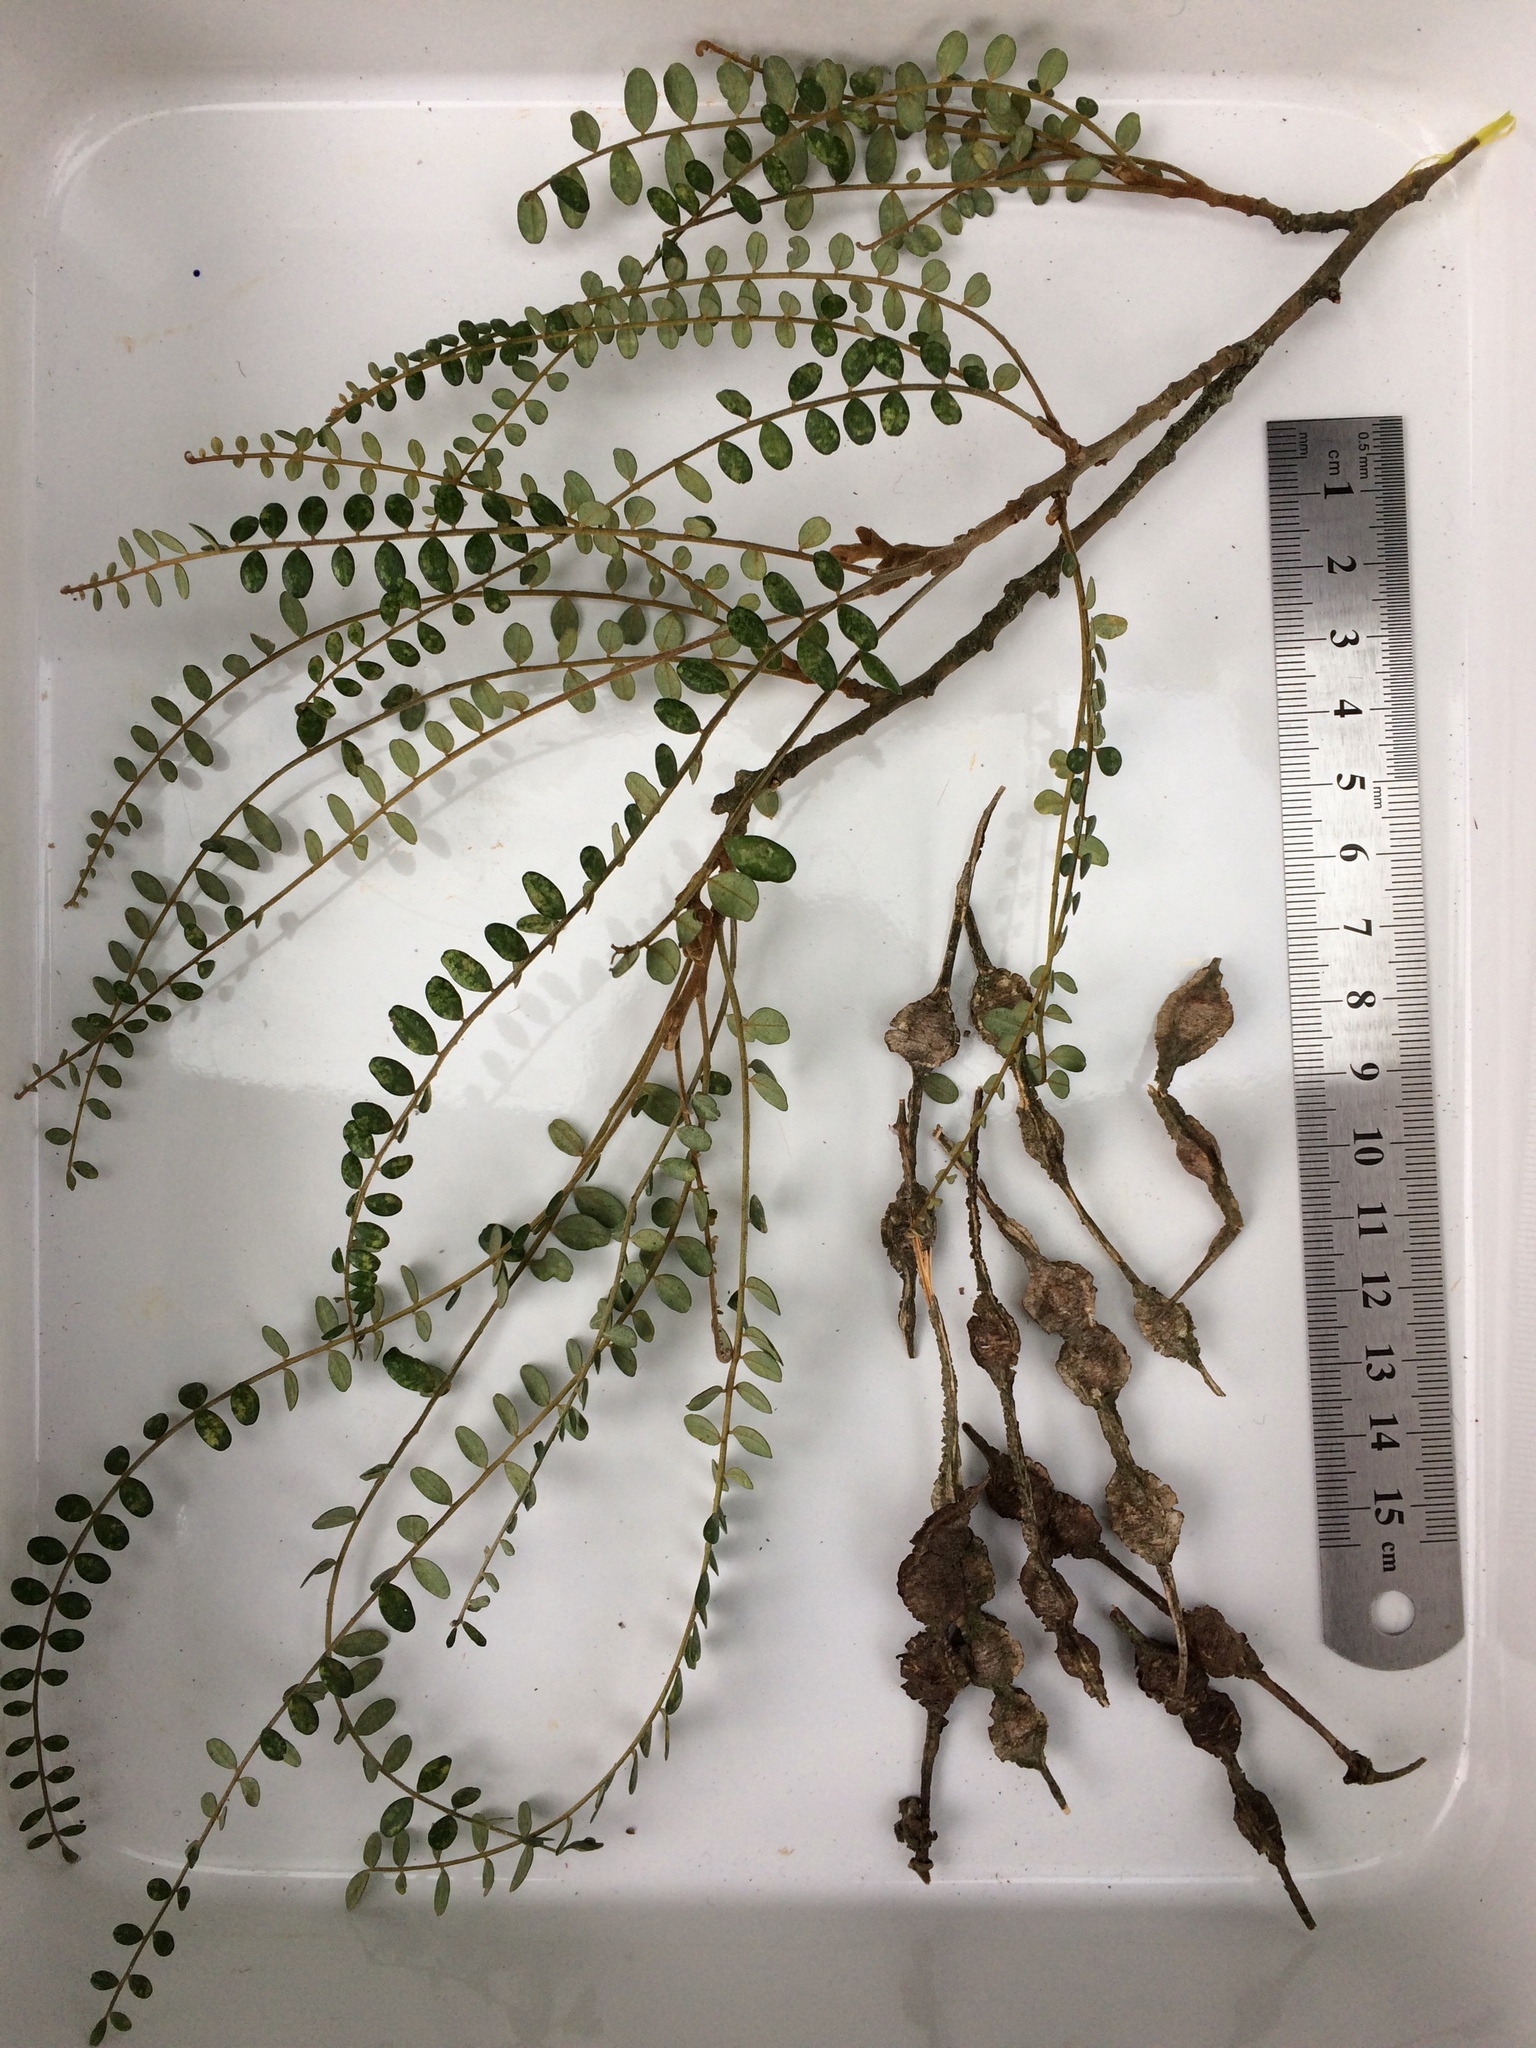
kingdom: Plantae
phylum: Tracheophyta
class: Magnoliopsida
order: Fabales
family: Fabaceae
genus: Sophora
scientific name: Sophora godleyi
